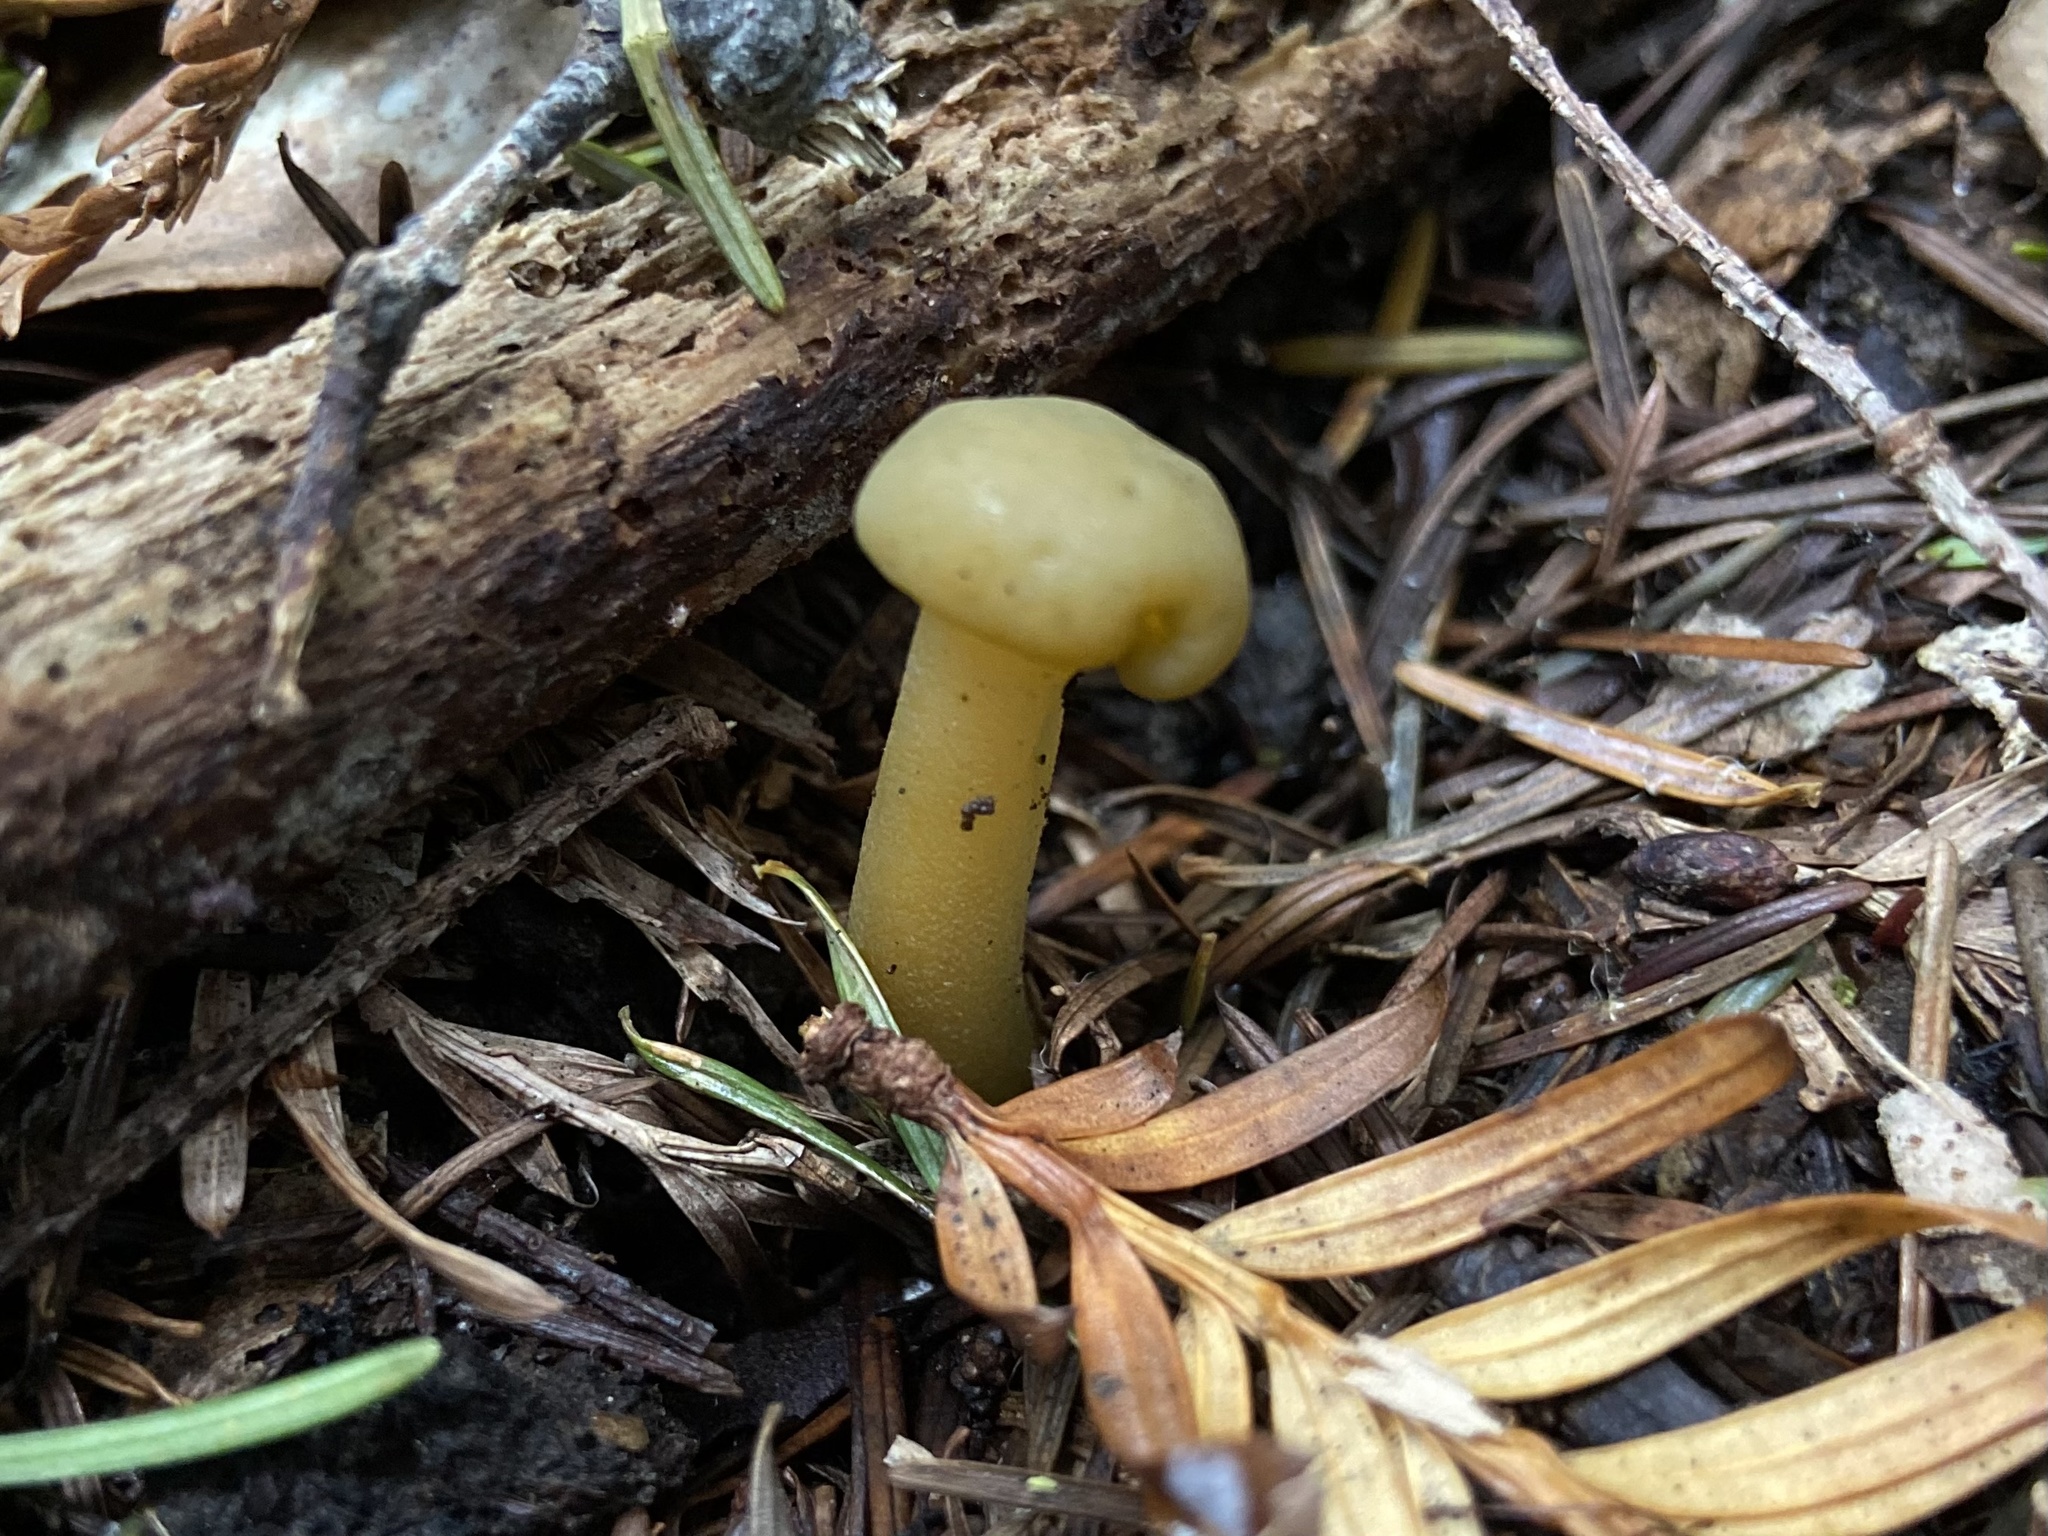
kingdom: Fungi
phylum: Ascomycota
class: Leotiomycetes
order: Leotiales
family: Leotiaceae
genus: Leotia
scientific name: Leotia lubrica
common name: Jellybaby
